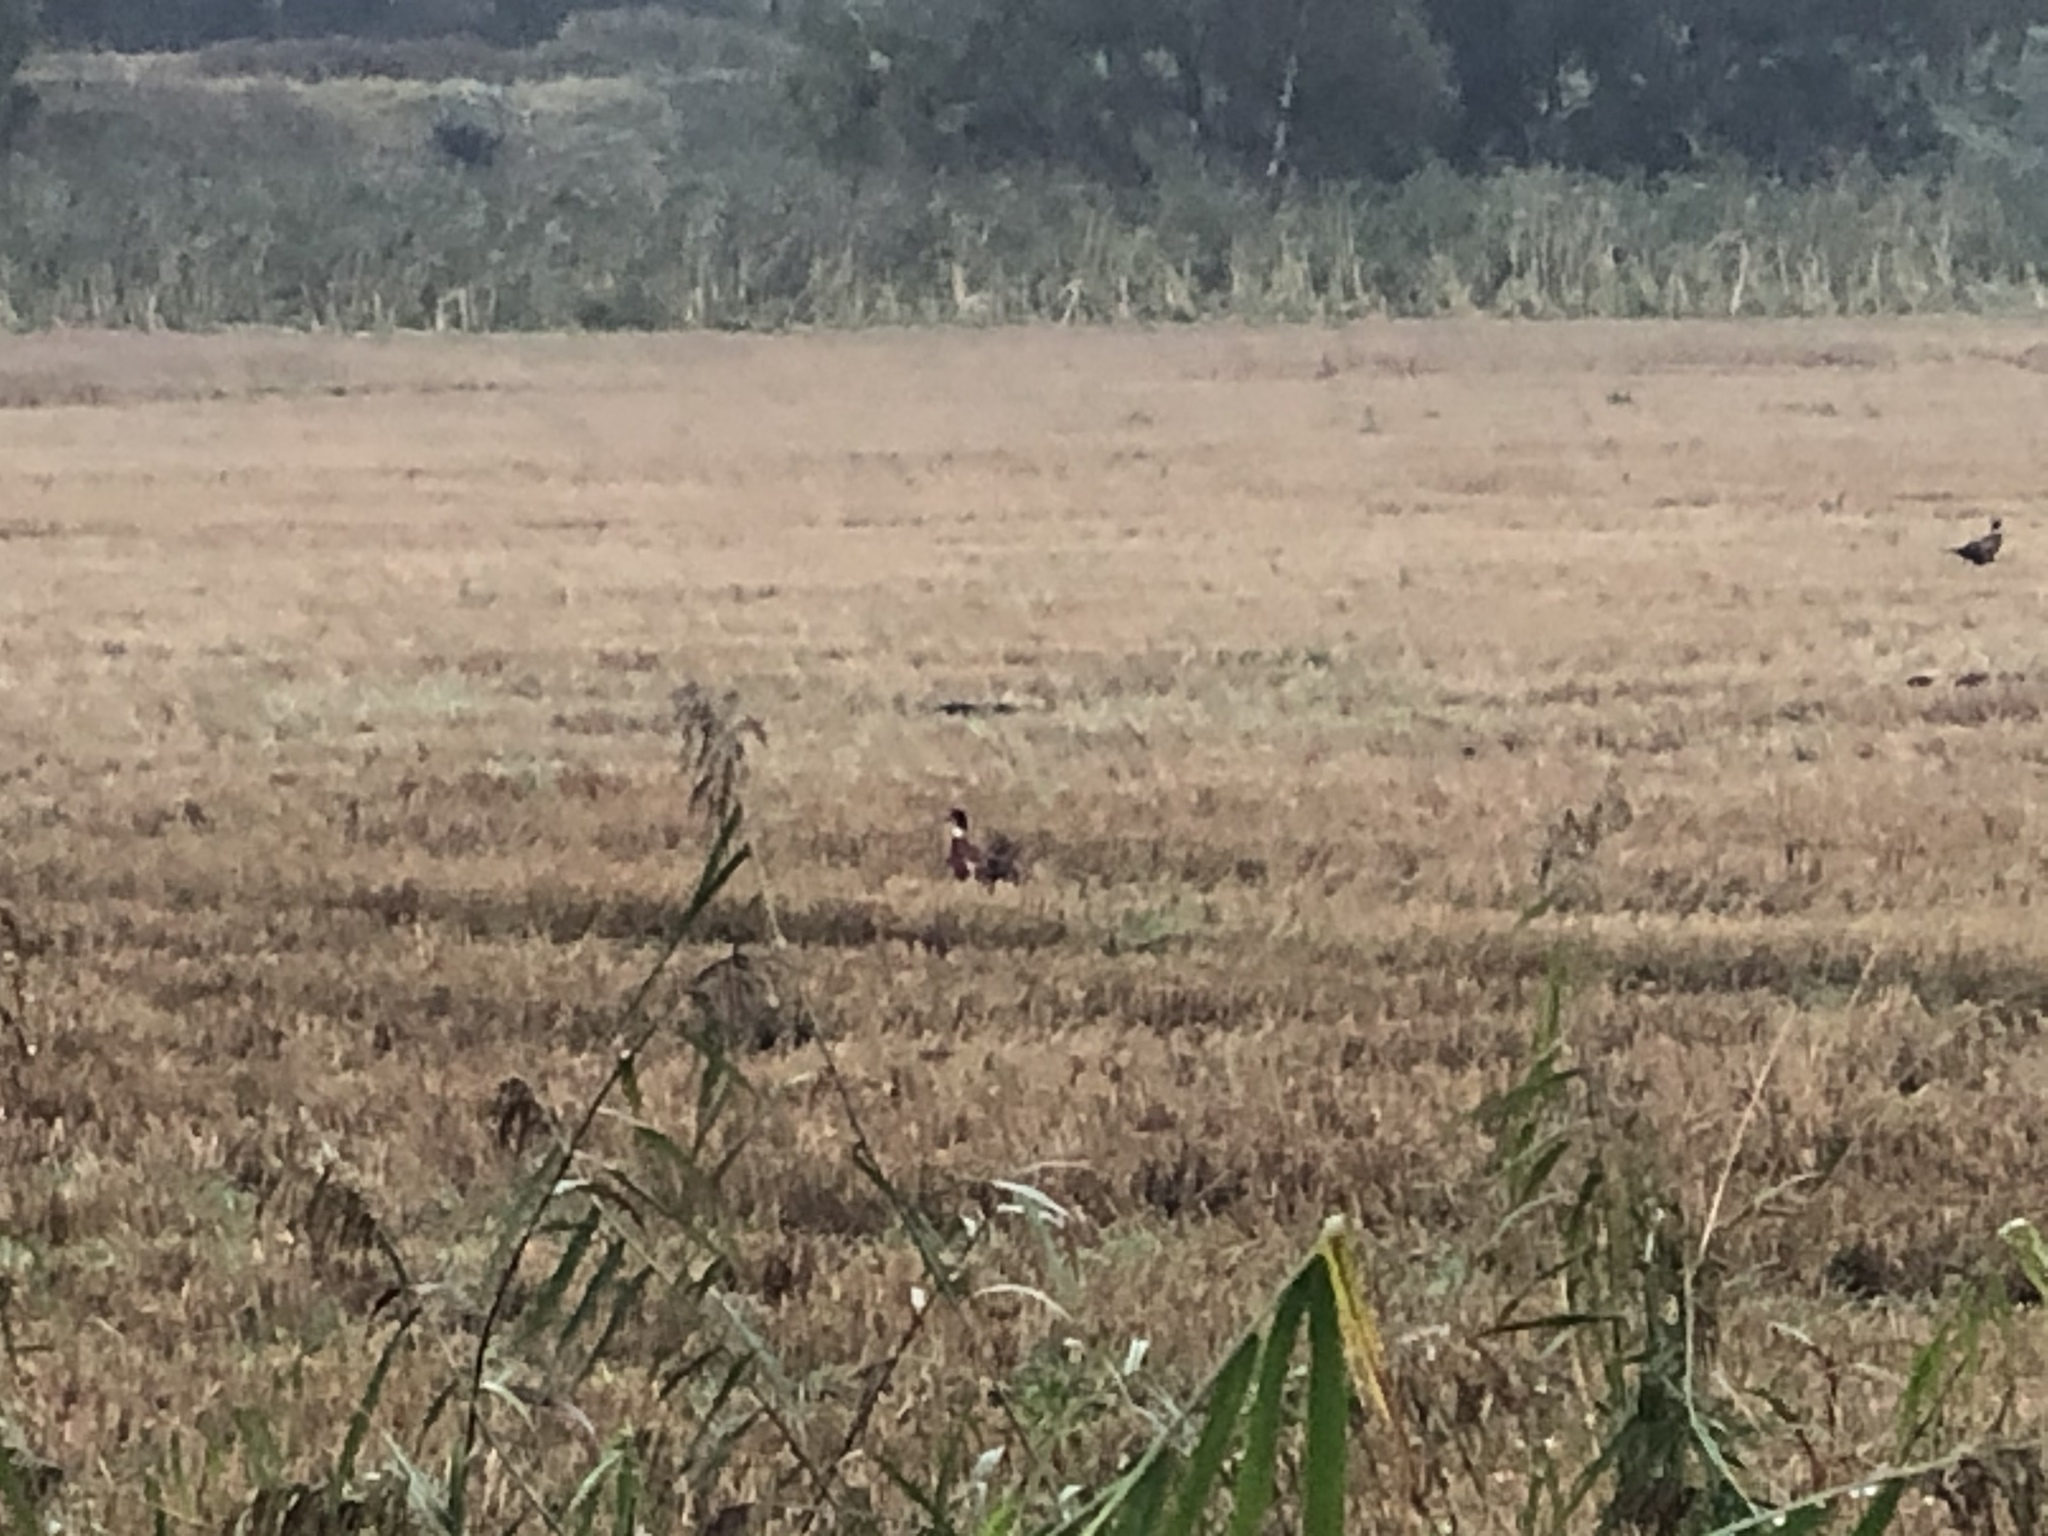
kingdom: Animalia
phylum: Chordata
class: Aves
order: Galliformes
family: Phasianidae
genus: Phasianus
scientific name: Phasianus colchicus
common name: Common pheasant
